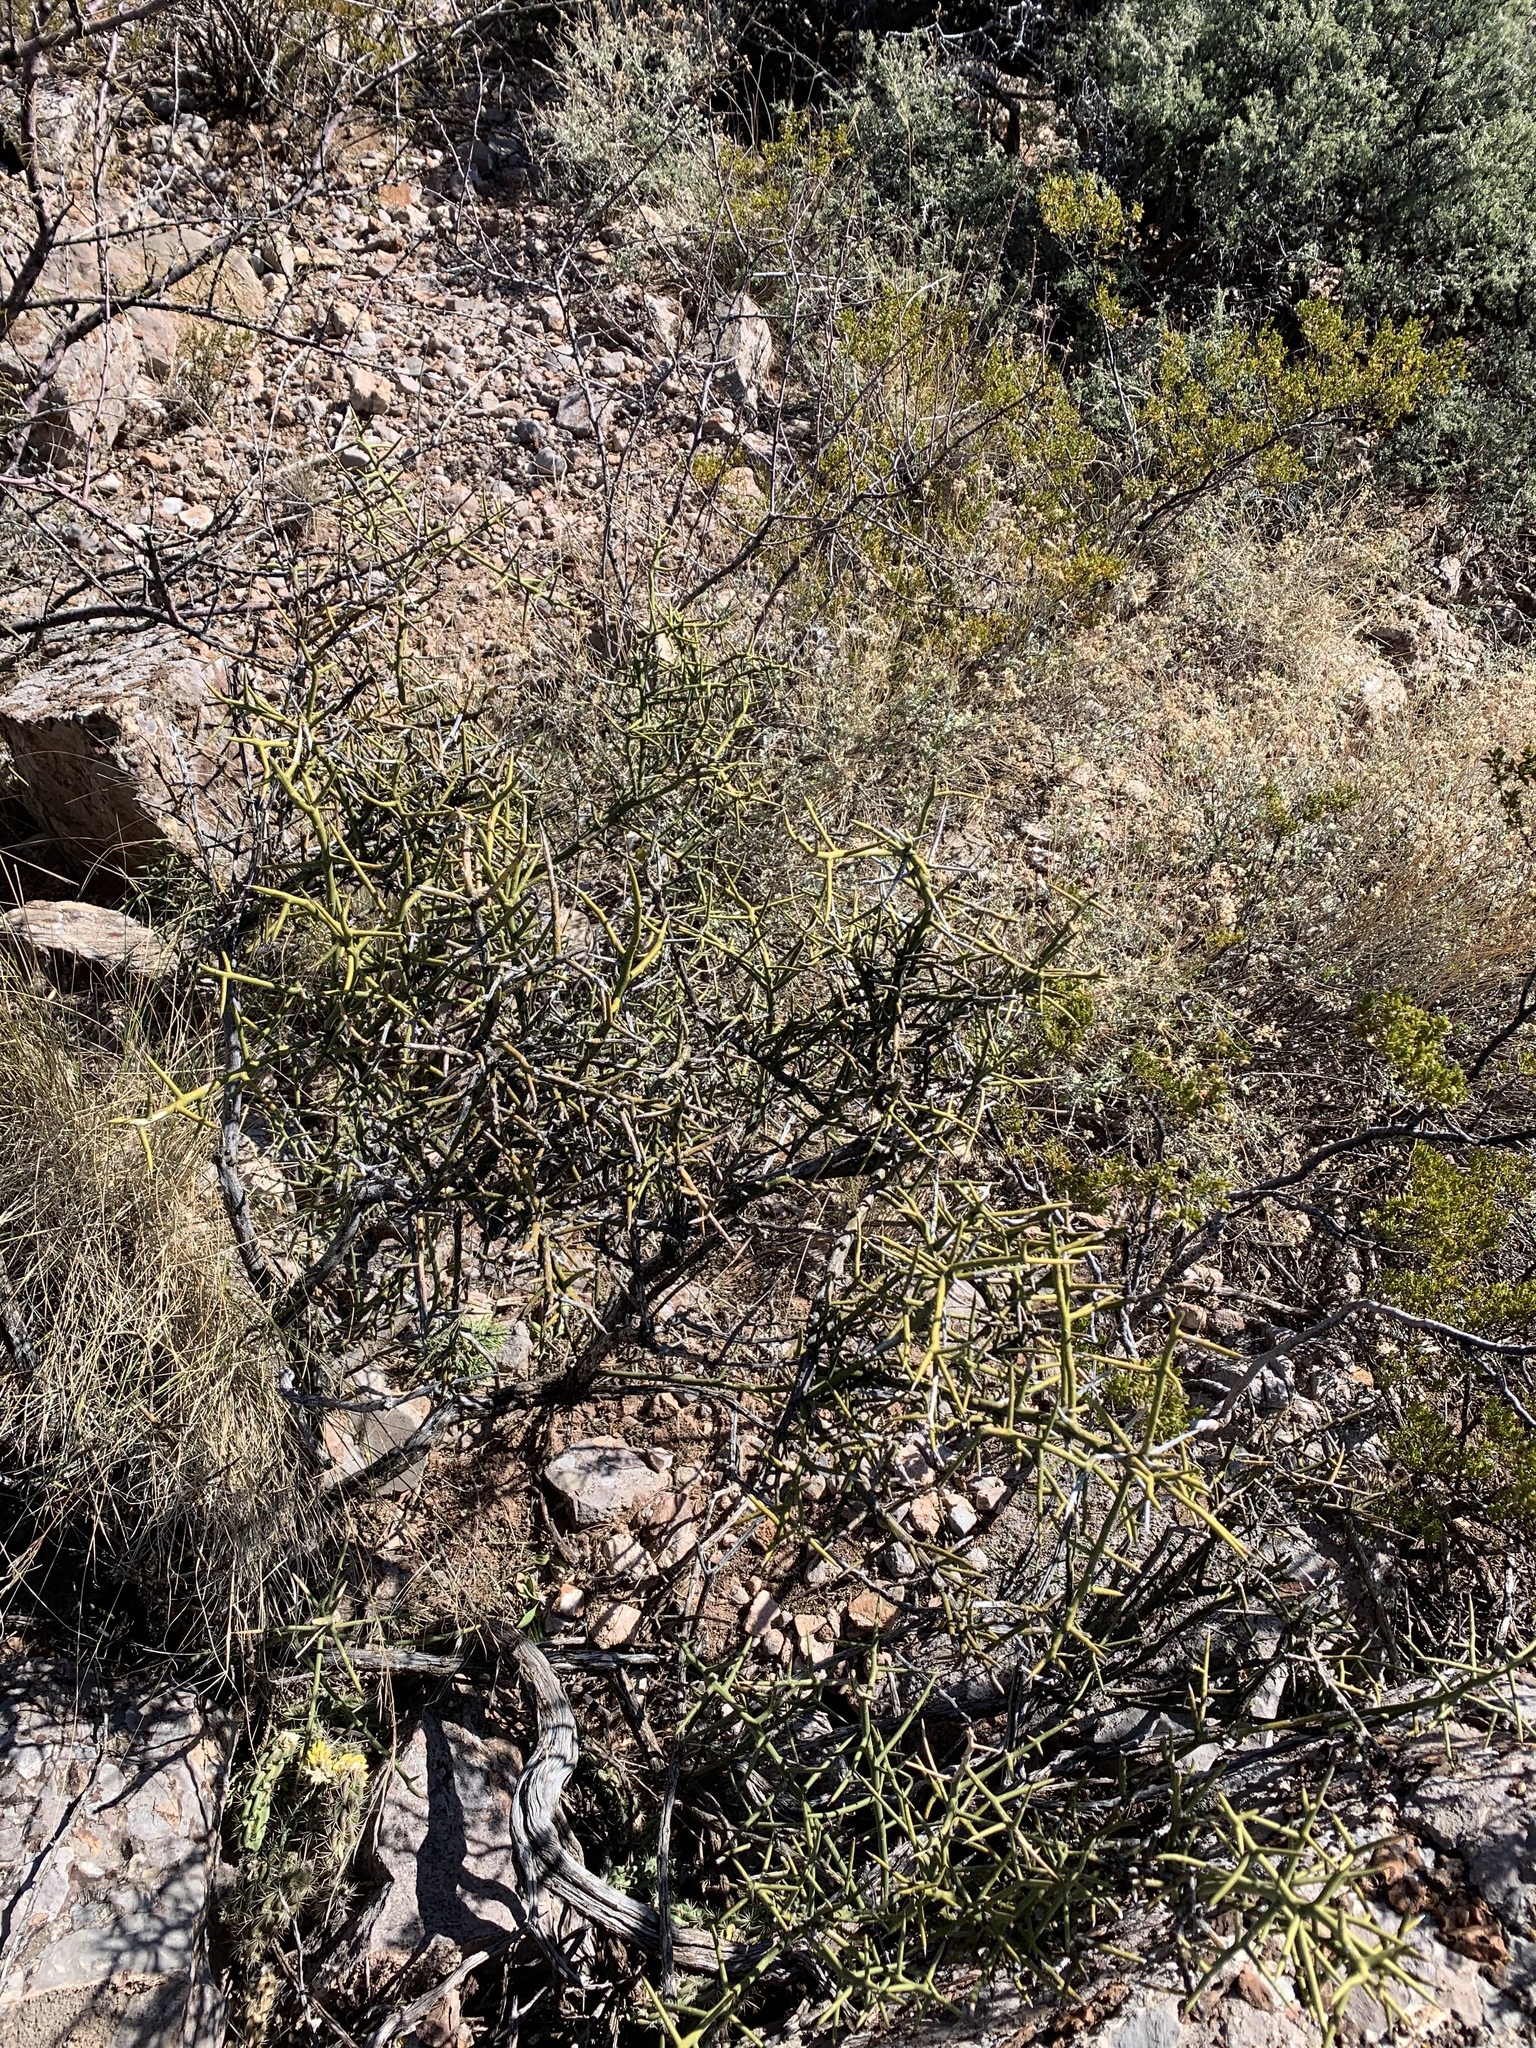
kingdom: Plantae
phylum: Tracheophyta
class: Magnoliopsida
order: Brassicales
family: Koeberliniaceae
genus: Koeberlinia
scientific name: Koeberlinia spinosa
